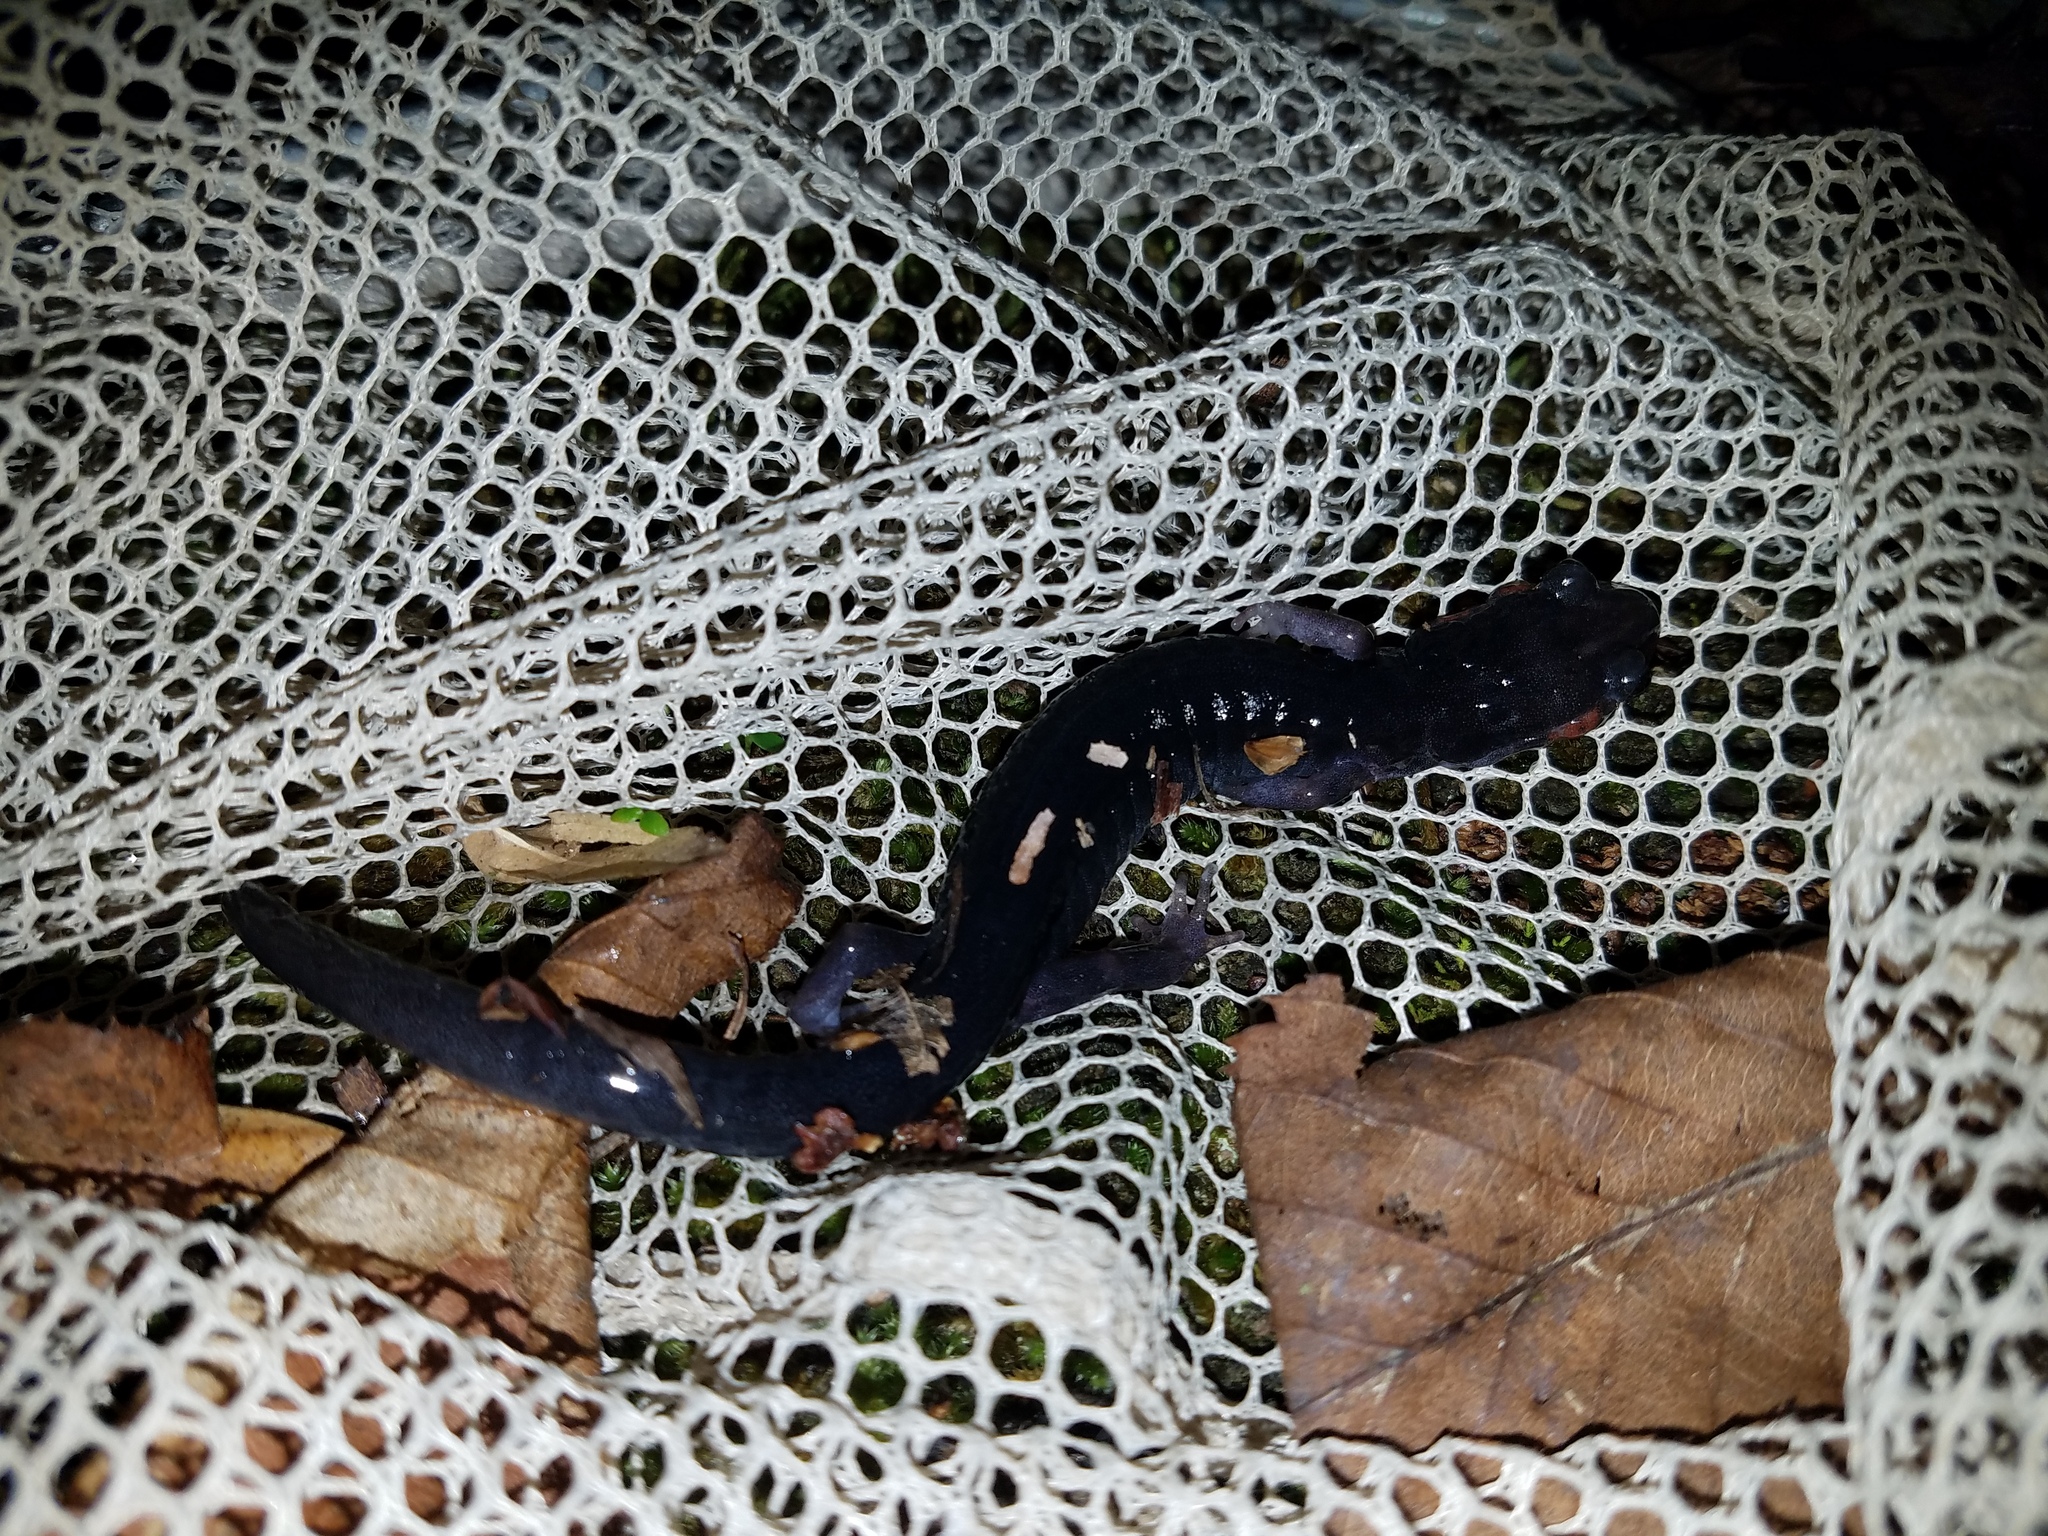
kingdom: Animalia
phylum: Chordata
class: Amphibia
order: Caudata
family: Plethodontidae
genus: Plethodon
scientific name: Plethodon shermani
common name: Red-legged salamander
